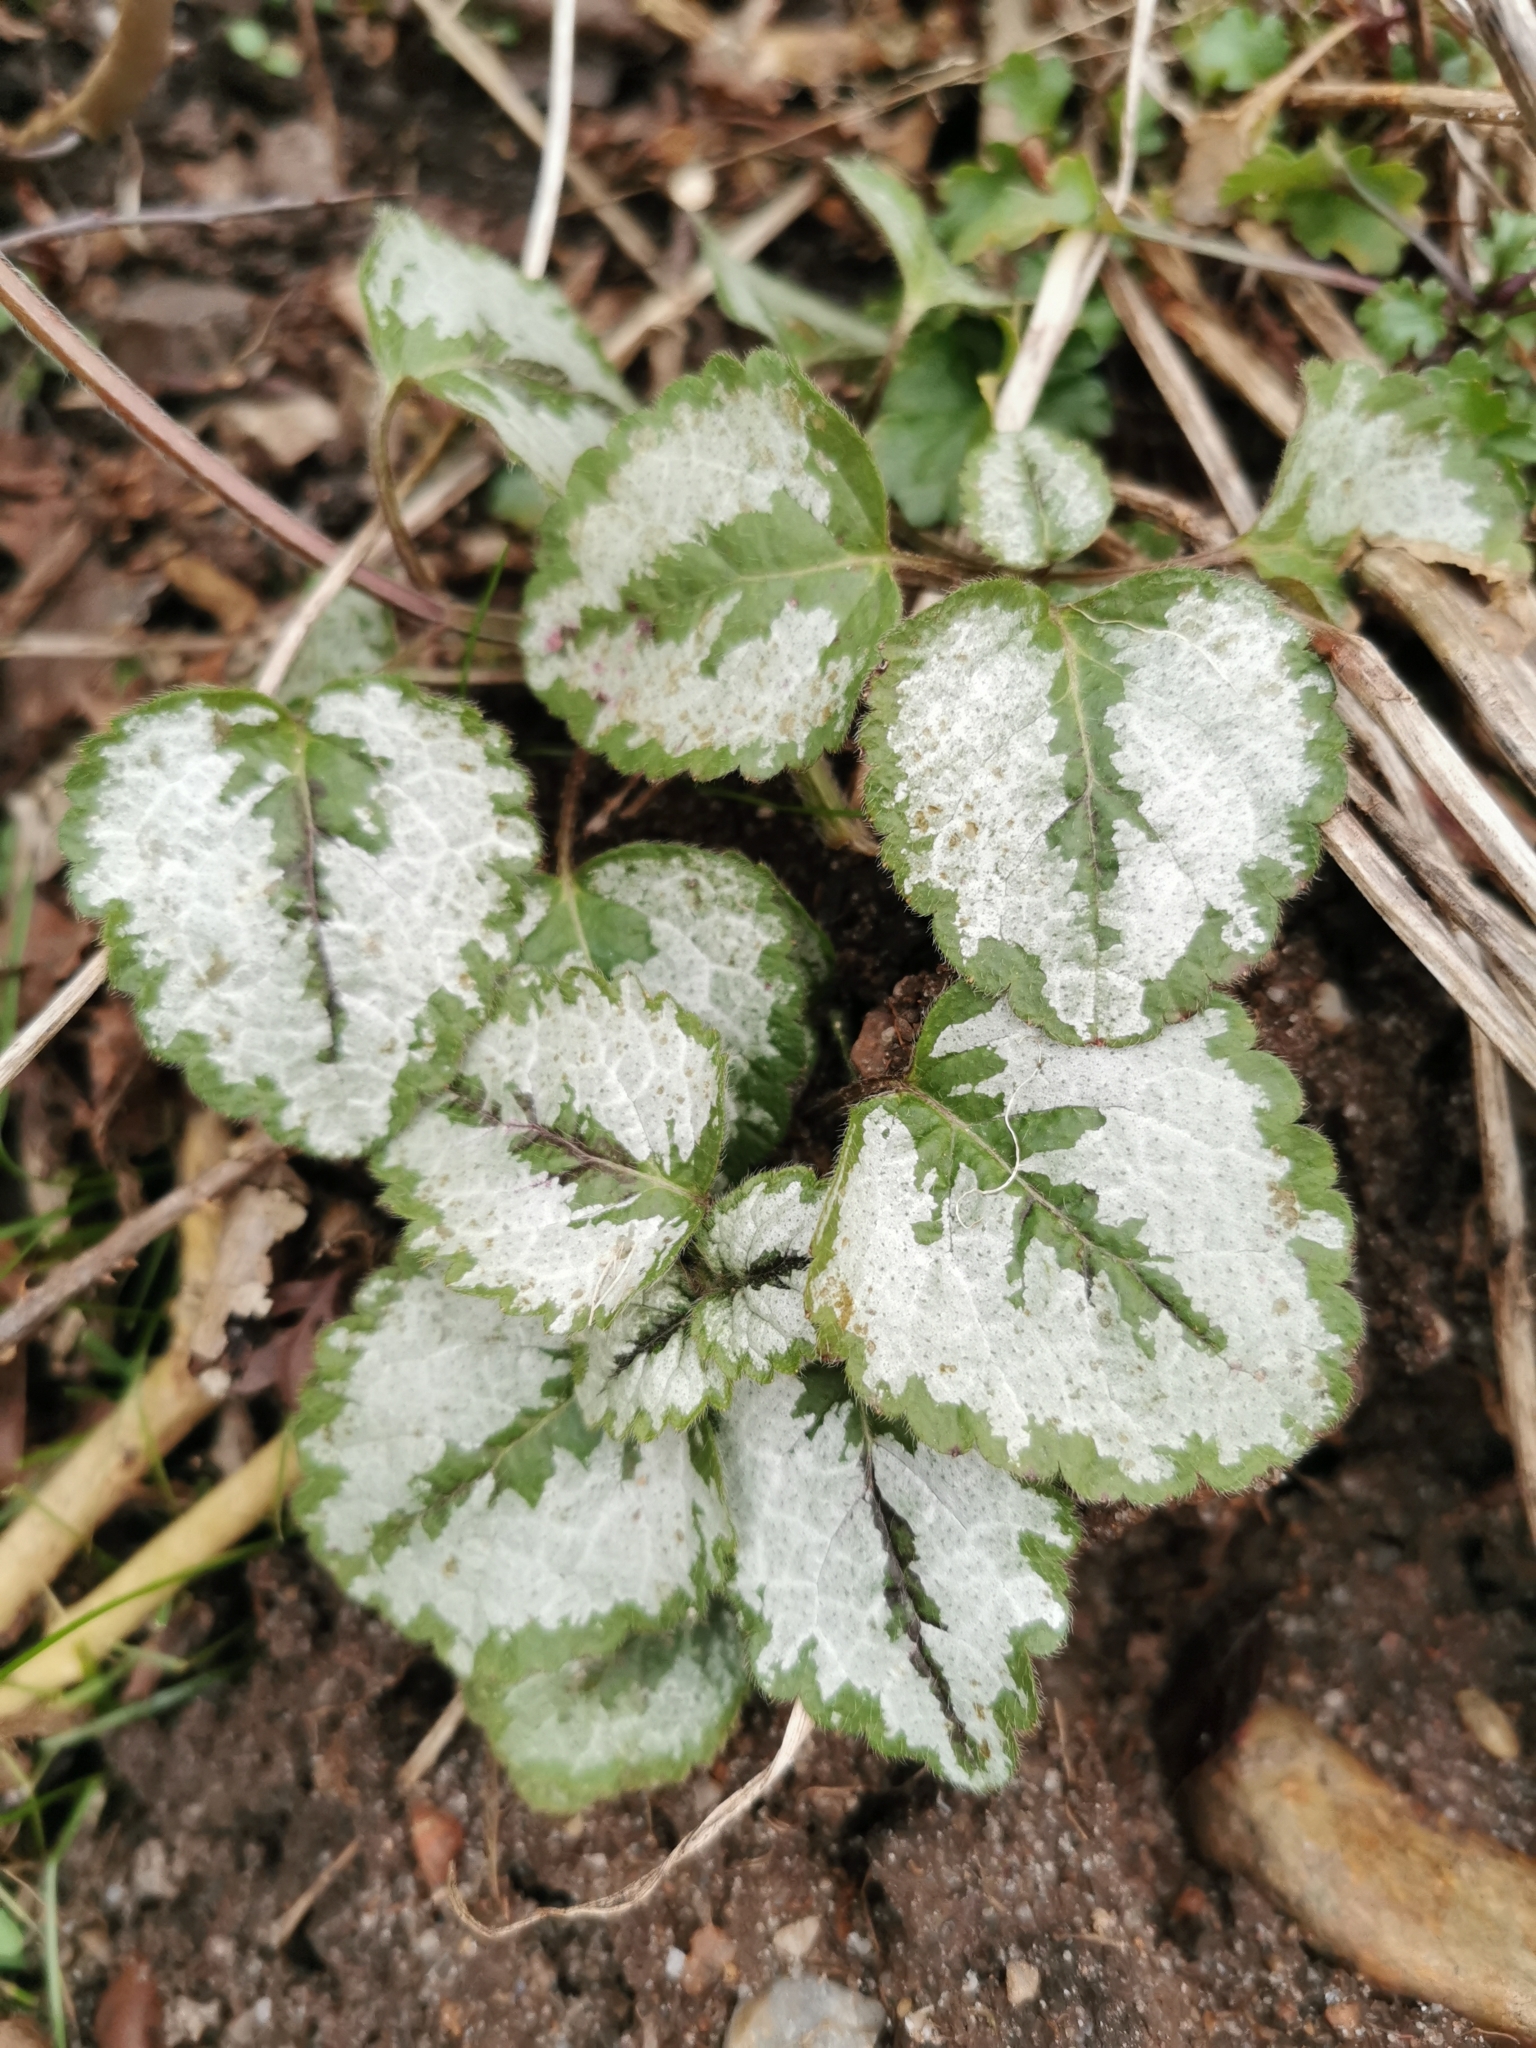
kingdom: Plantae
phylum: Tracheophyta
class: Magnoliopsida
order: Lamiales
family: Lamiaceae
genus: Lamium
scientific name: Lamium galeobdolon
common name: Yellow archangel
